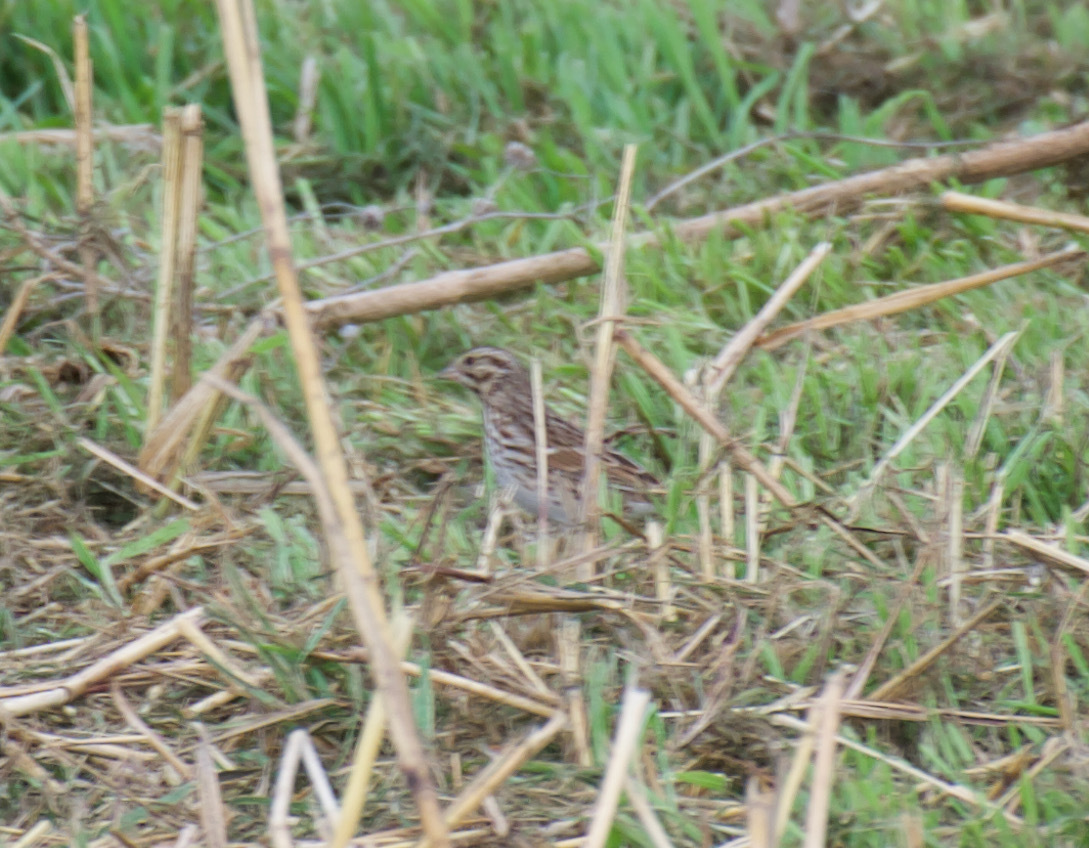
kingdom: Animalia
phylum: Chordata
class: Aves
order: Passeriformes
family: Passerellidae
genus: Passerculus
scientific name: Passerculus sandwichensis
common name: Savannah sparrow
